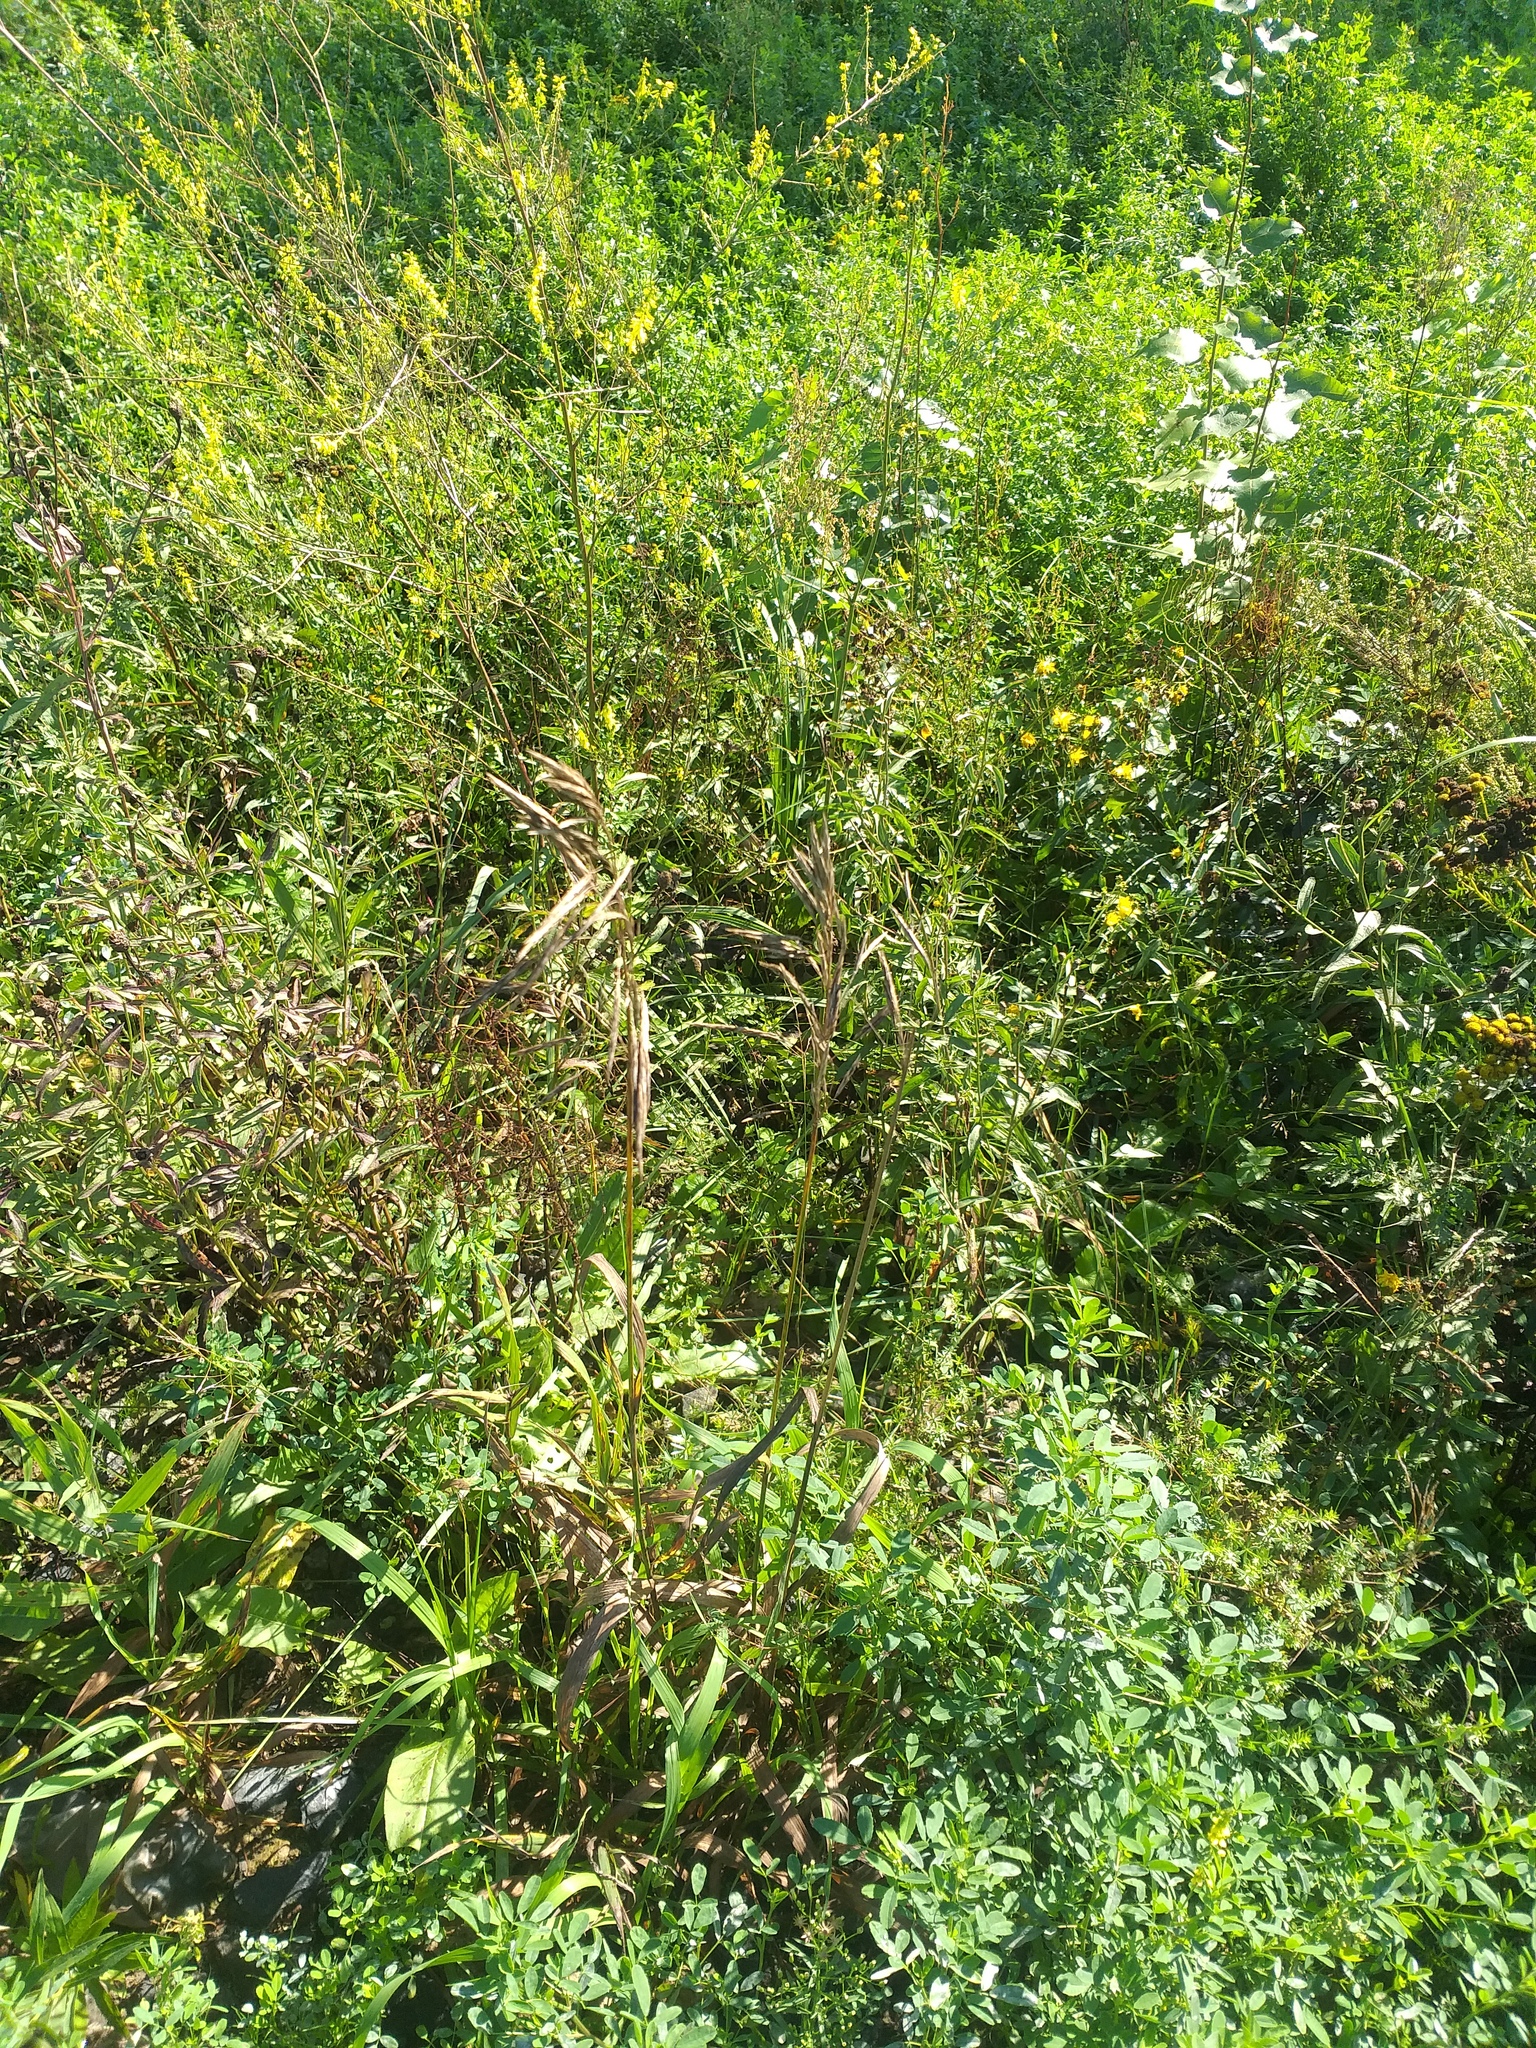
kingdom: Plantae
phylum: Tracheophyta
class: Liliopsida
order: Poales
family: Poaceae
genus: Bromus
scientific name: Bromus inermis
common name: Smooth brome
